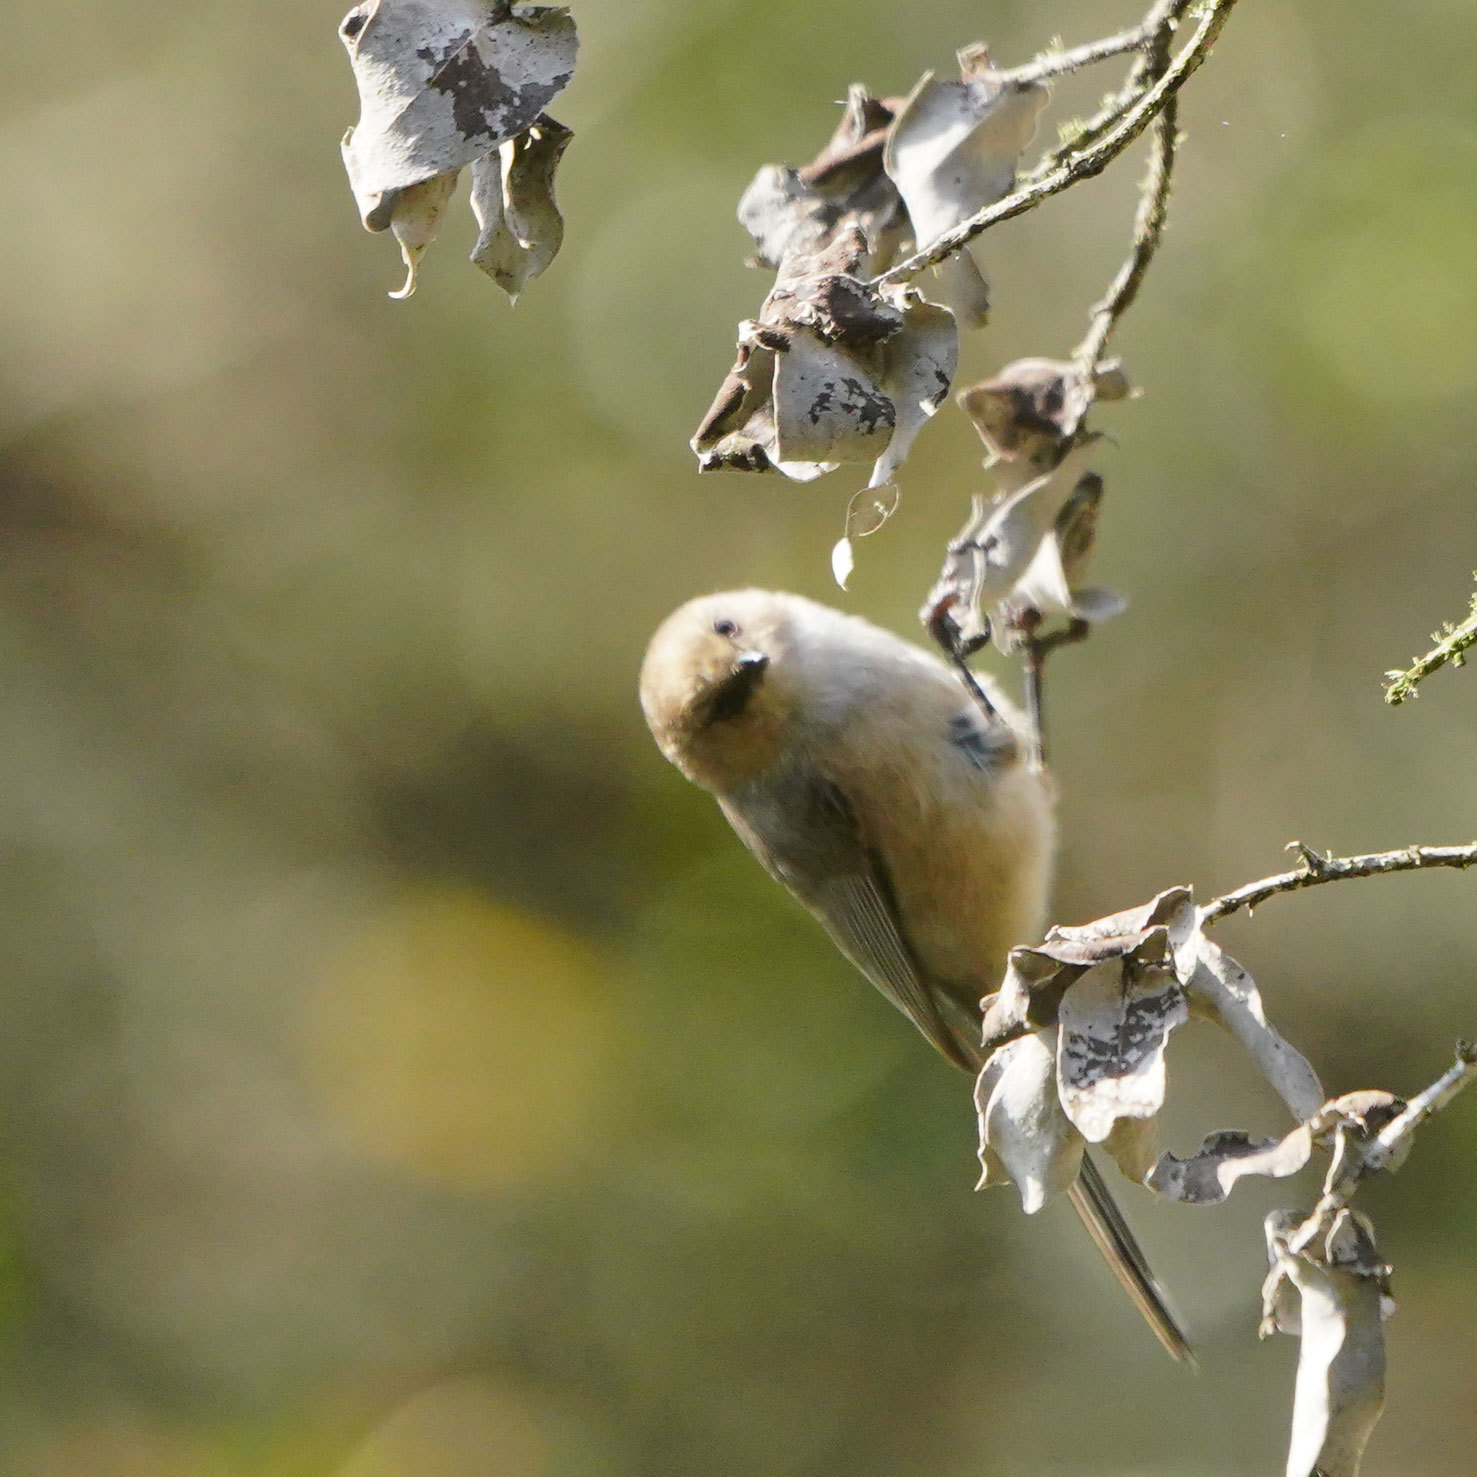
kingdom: Animalia
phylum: Chordata
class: Aves
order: Passeriformes
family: Aegithalidae
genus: Psaltriparus
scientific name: Psaltriparus minimus
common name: American bushtit
